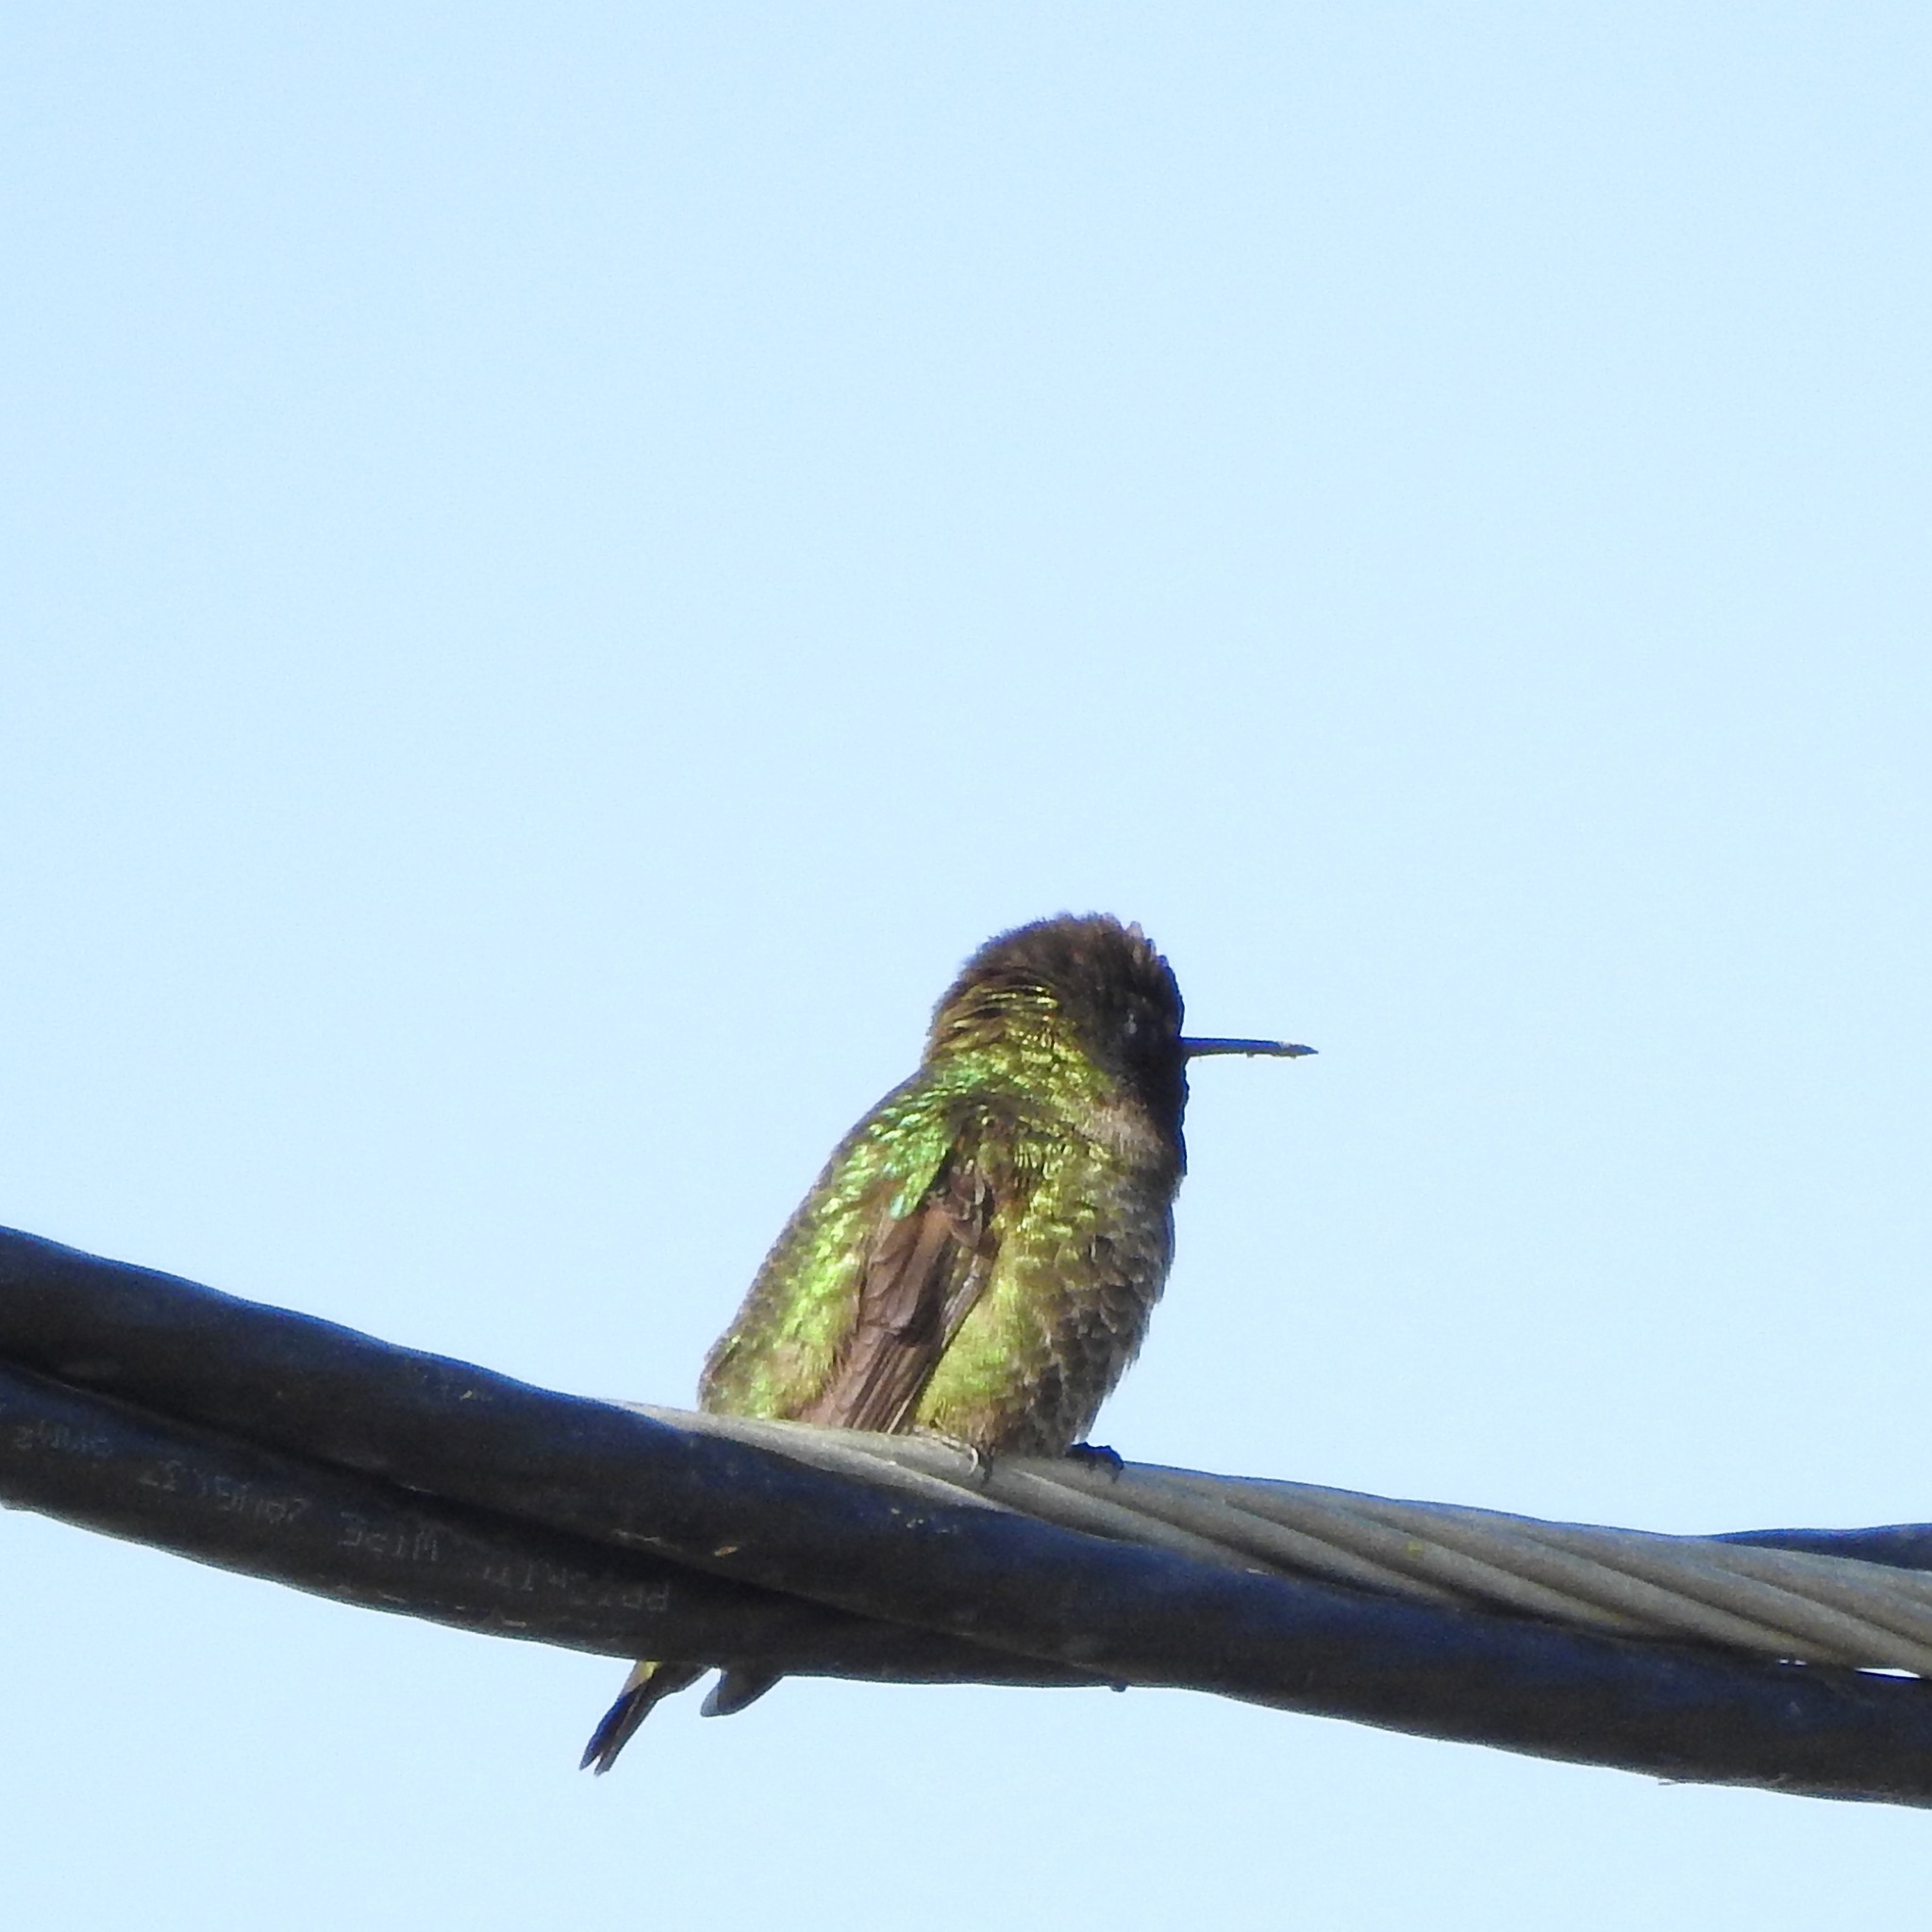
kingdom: Animalia
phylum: Chordata
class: Aves
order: Apodiformes
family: Trochilidae
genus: Calypte
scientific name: Calypte anna
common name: Anna's hummingbird
